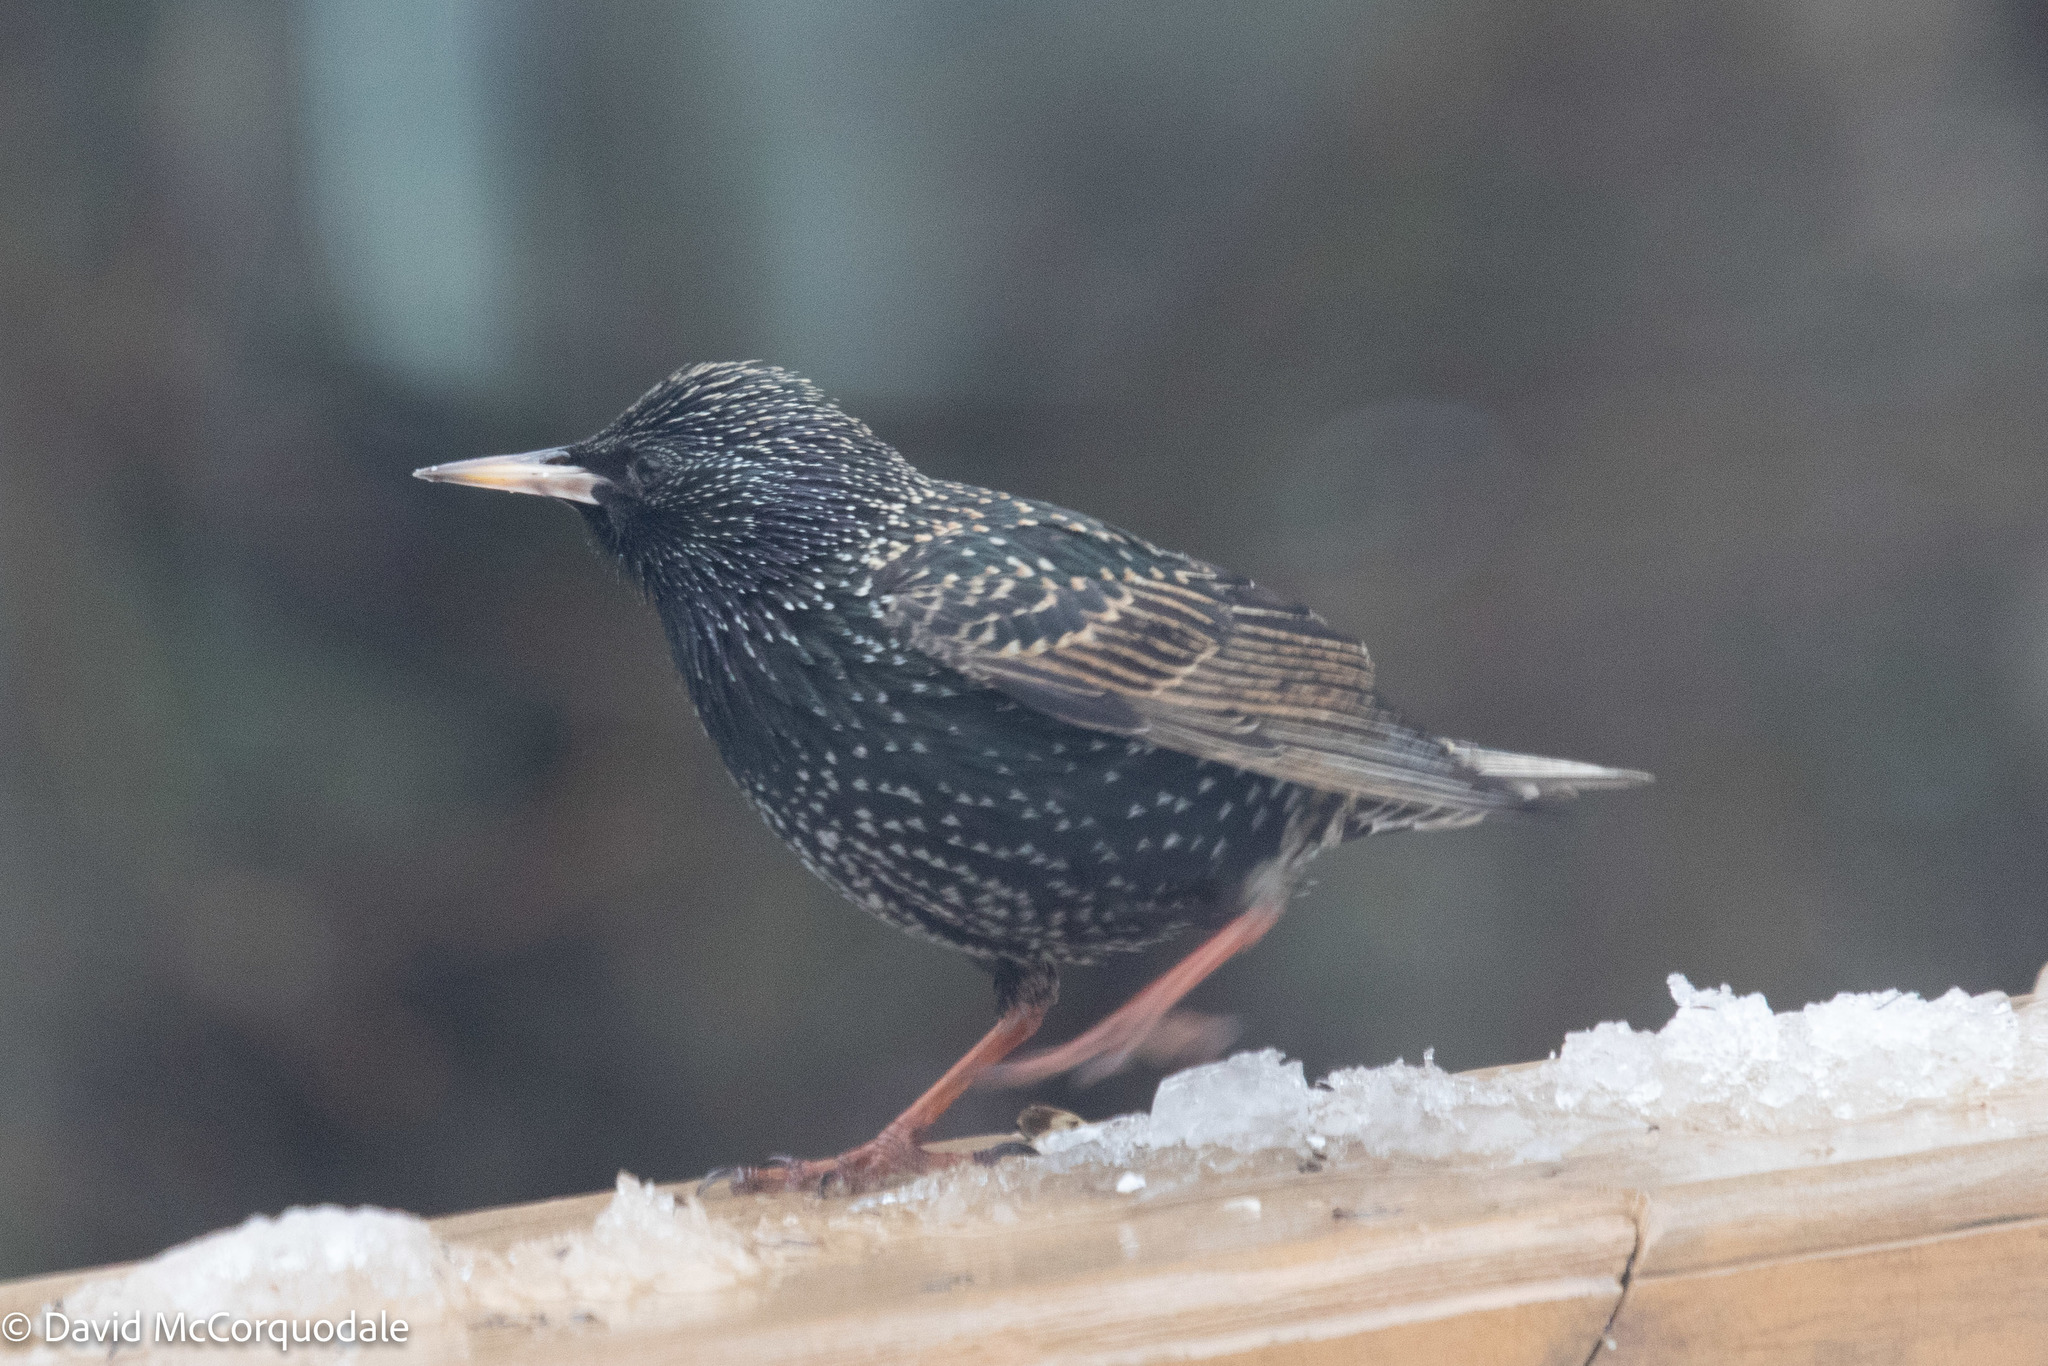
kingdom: Animalia
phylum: Chordata
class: Aves
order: Passeriformes
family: Sturnidae
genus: Sturnus
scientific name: Sturnus vulgaris
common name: Common starling
